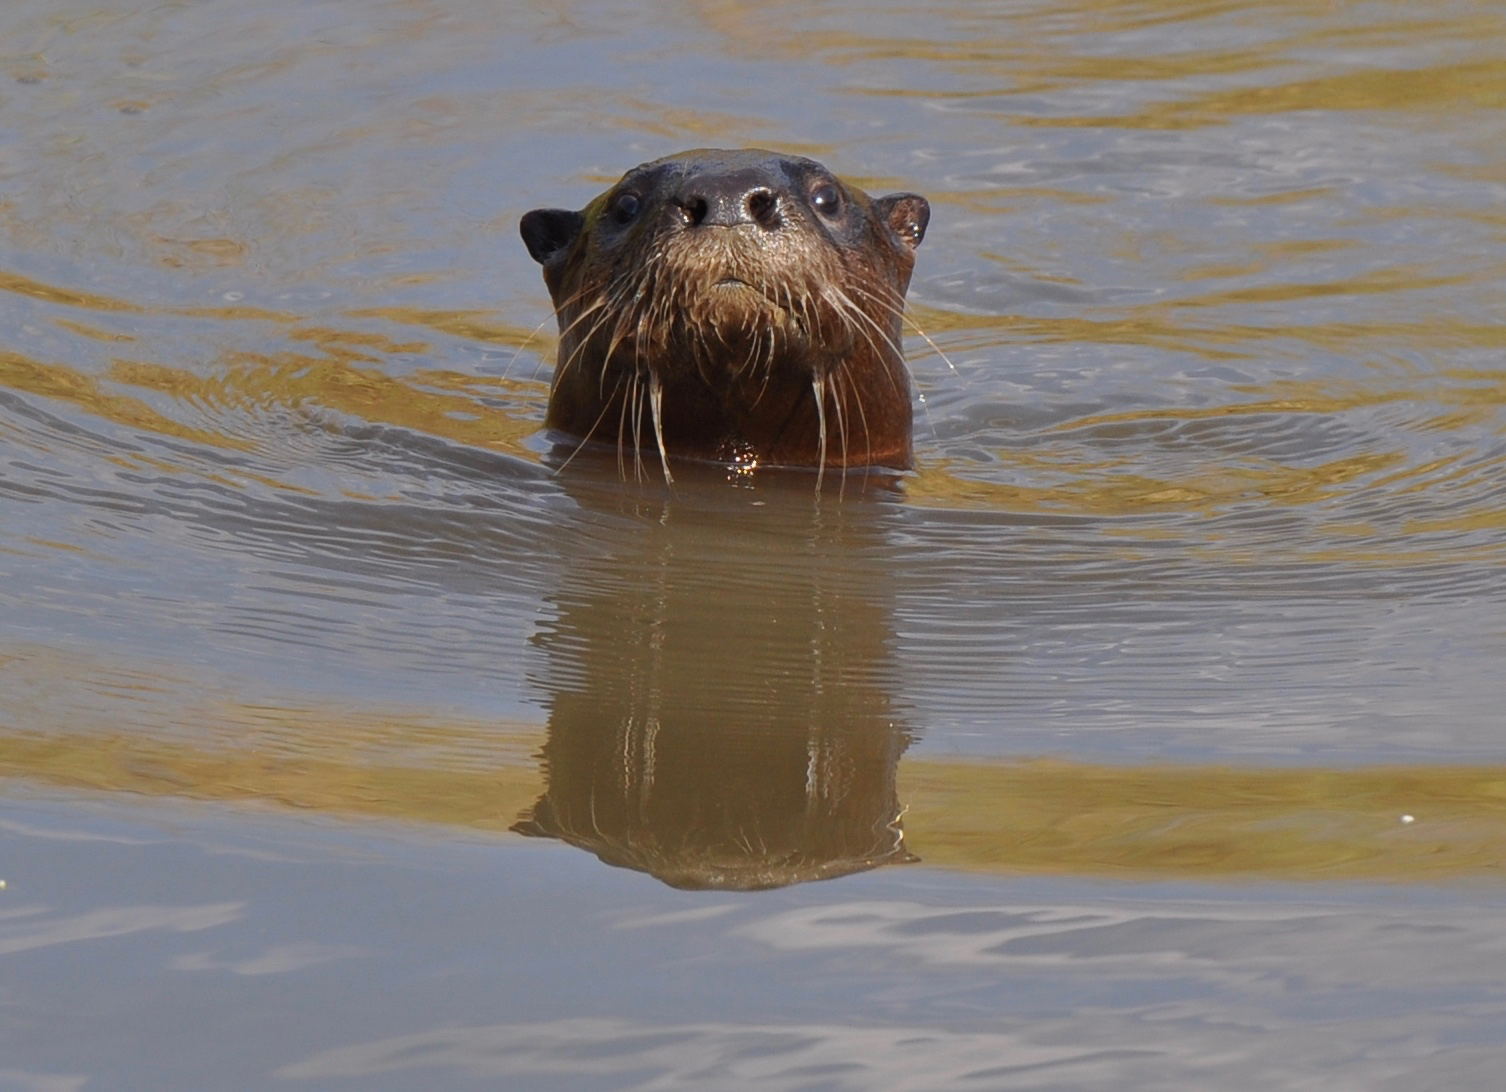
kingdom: Animalia
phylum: Chordata
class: Mammalia
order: Carnivora
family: Mustelidae
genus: Lontra
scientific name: Lontra canadensis
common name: North american river otter
